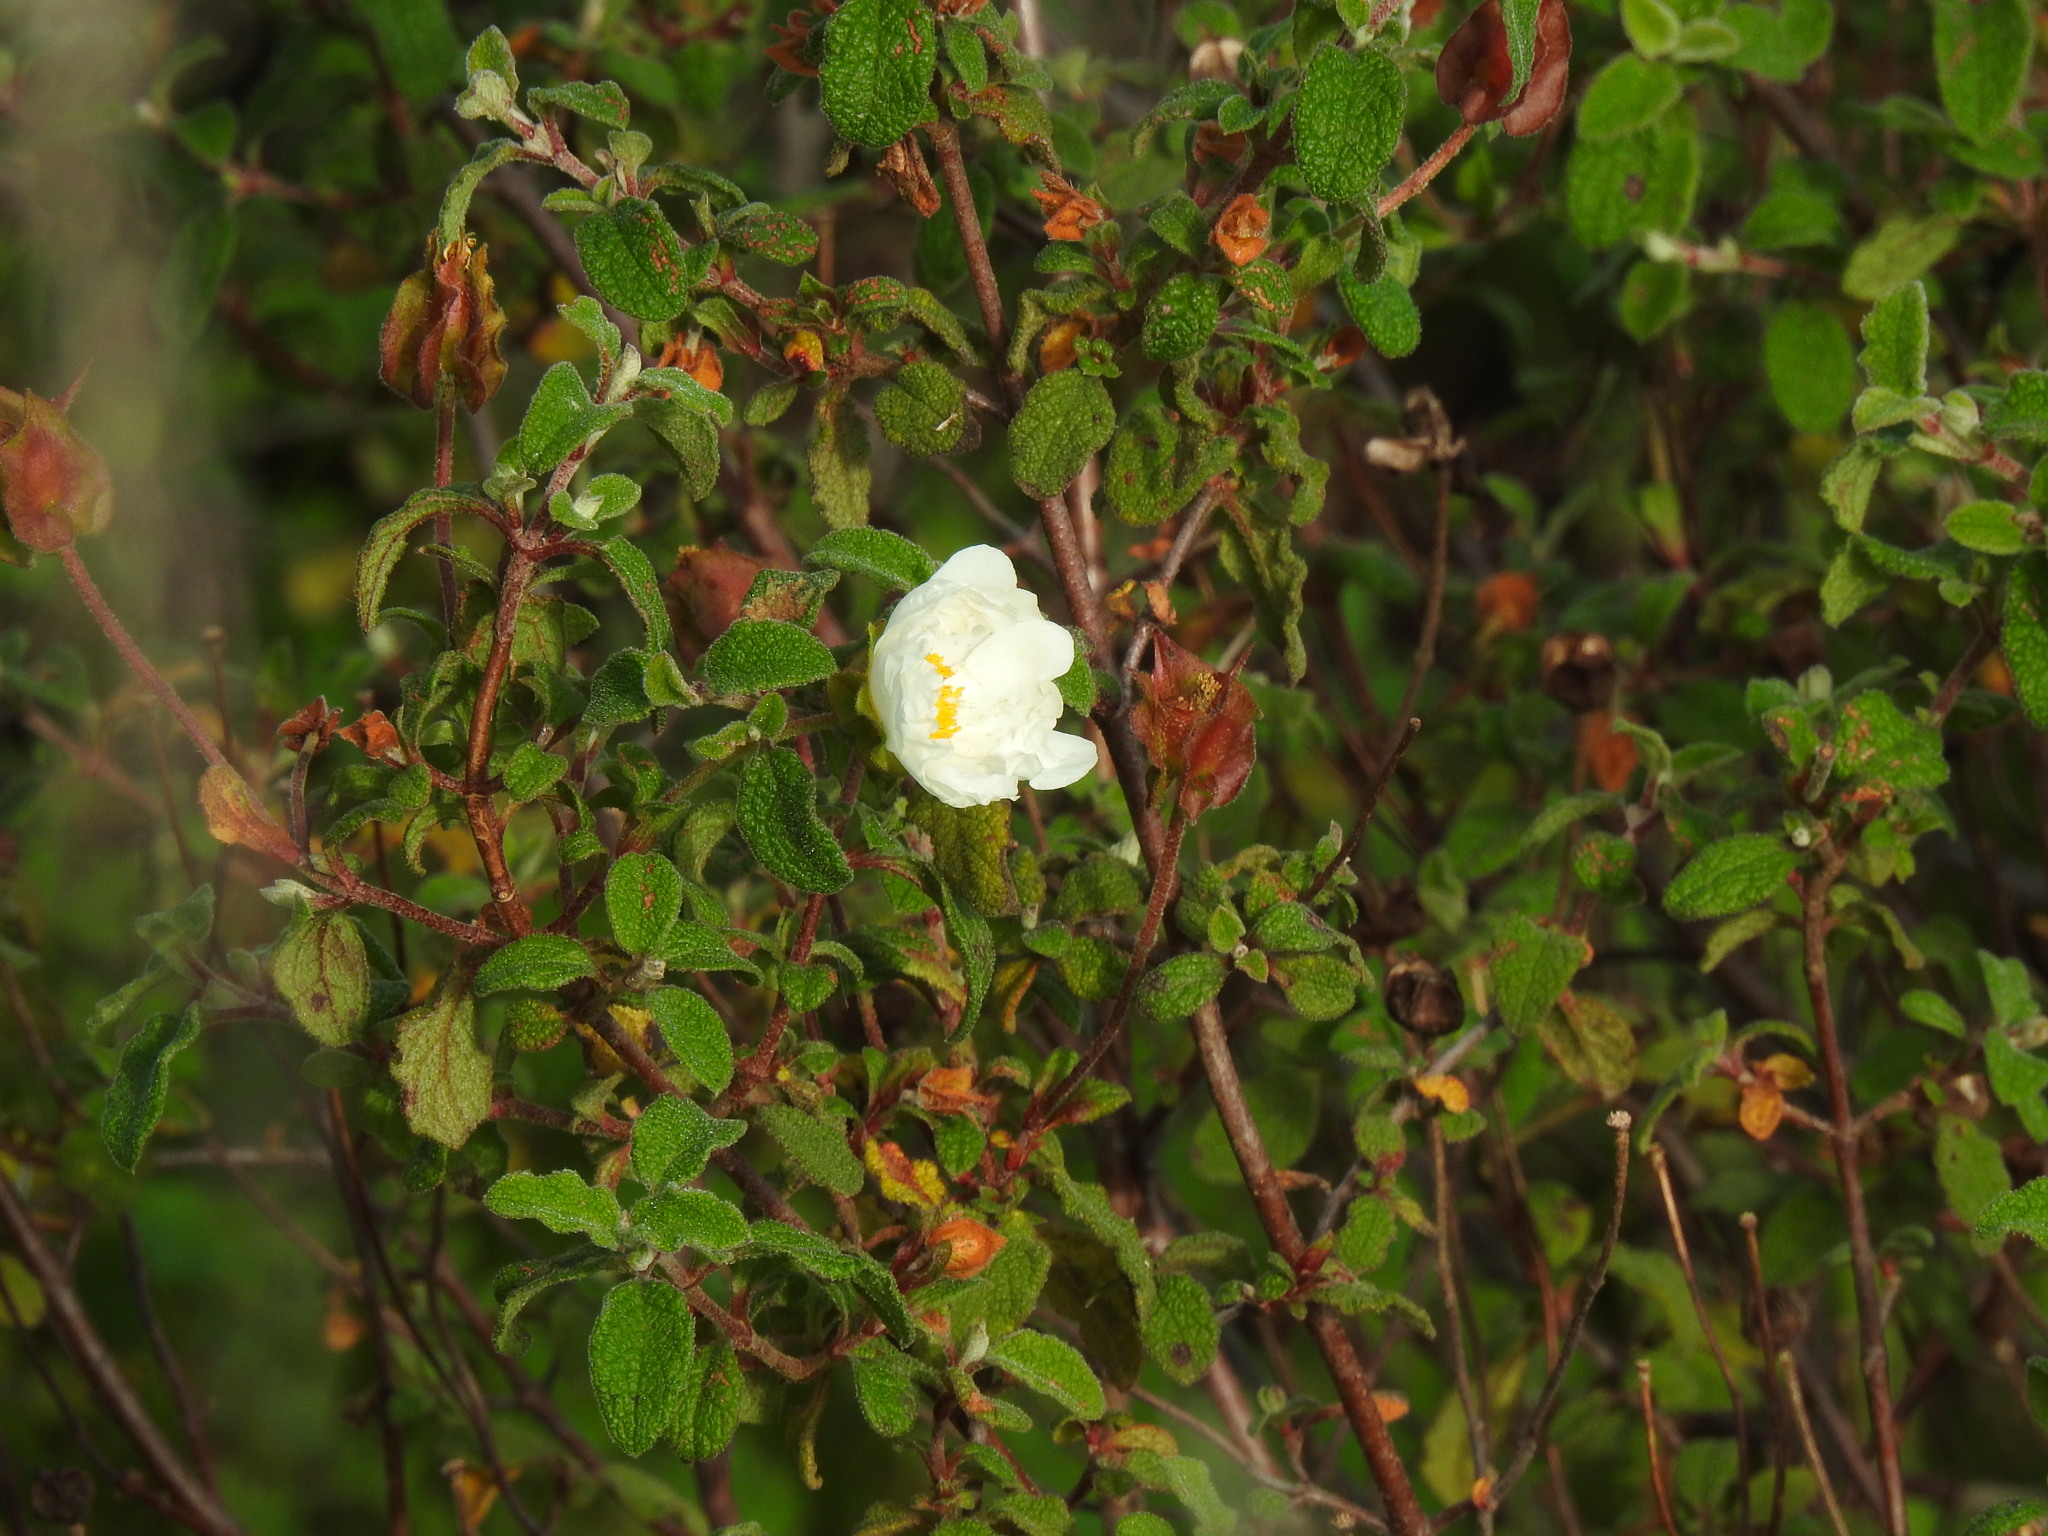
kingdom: Plantae
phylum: Tracheophyta
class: Magnoliopsida
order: Malvales
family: Cistaceae
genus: Cistus
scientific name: Cistus salviifolius
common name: Salvia cistus
